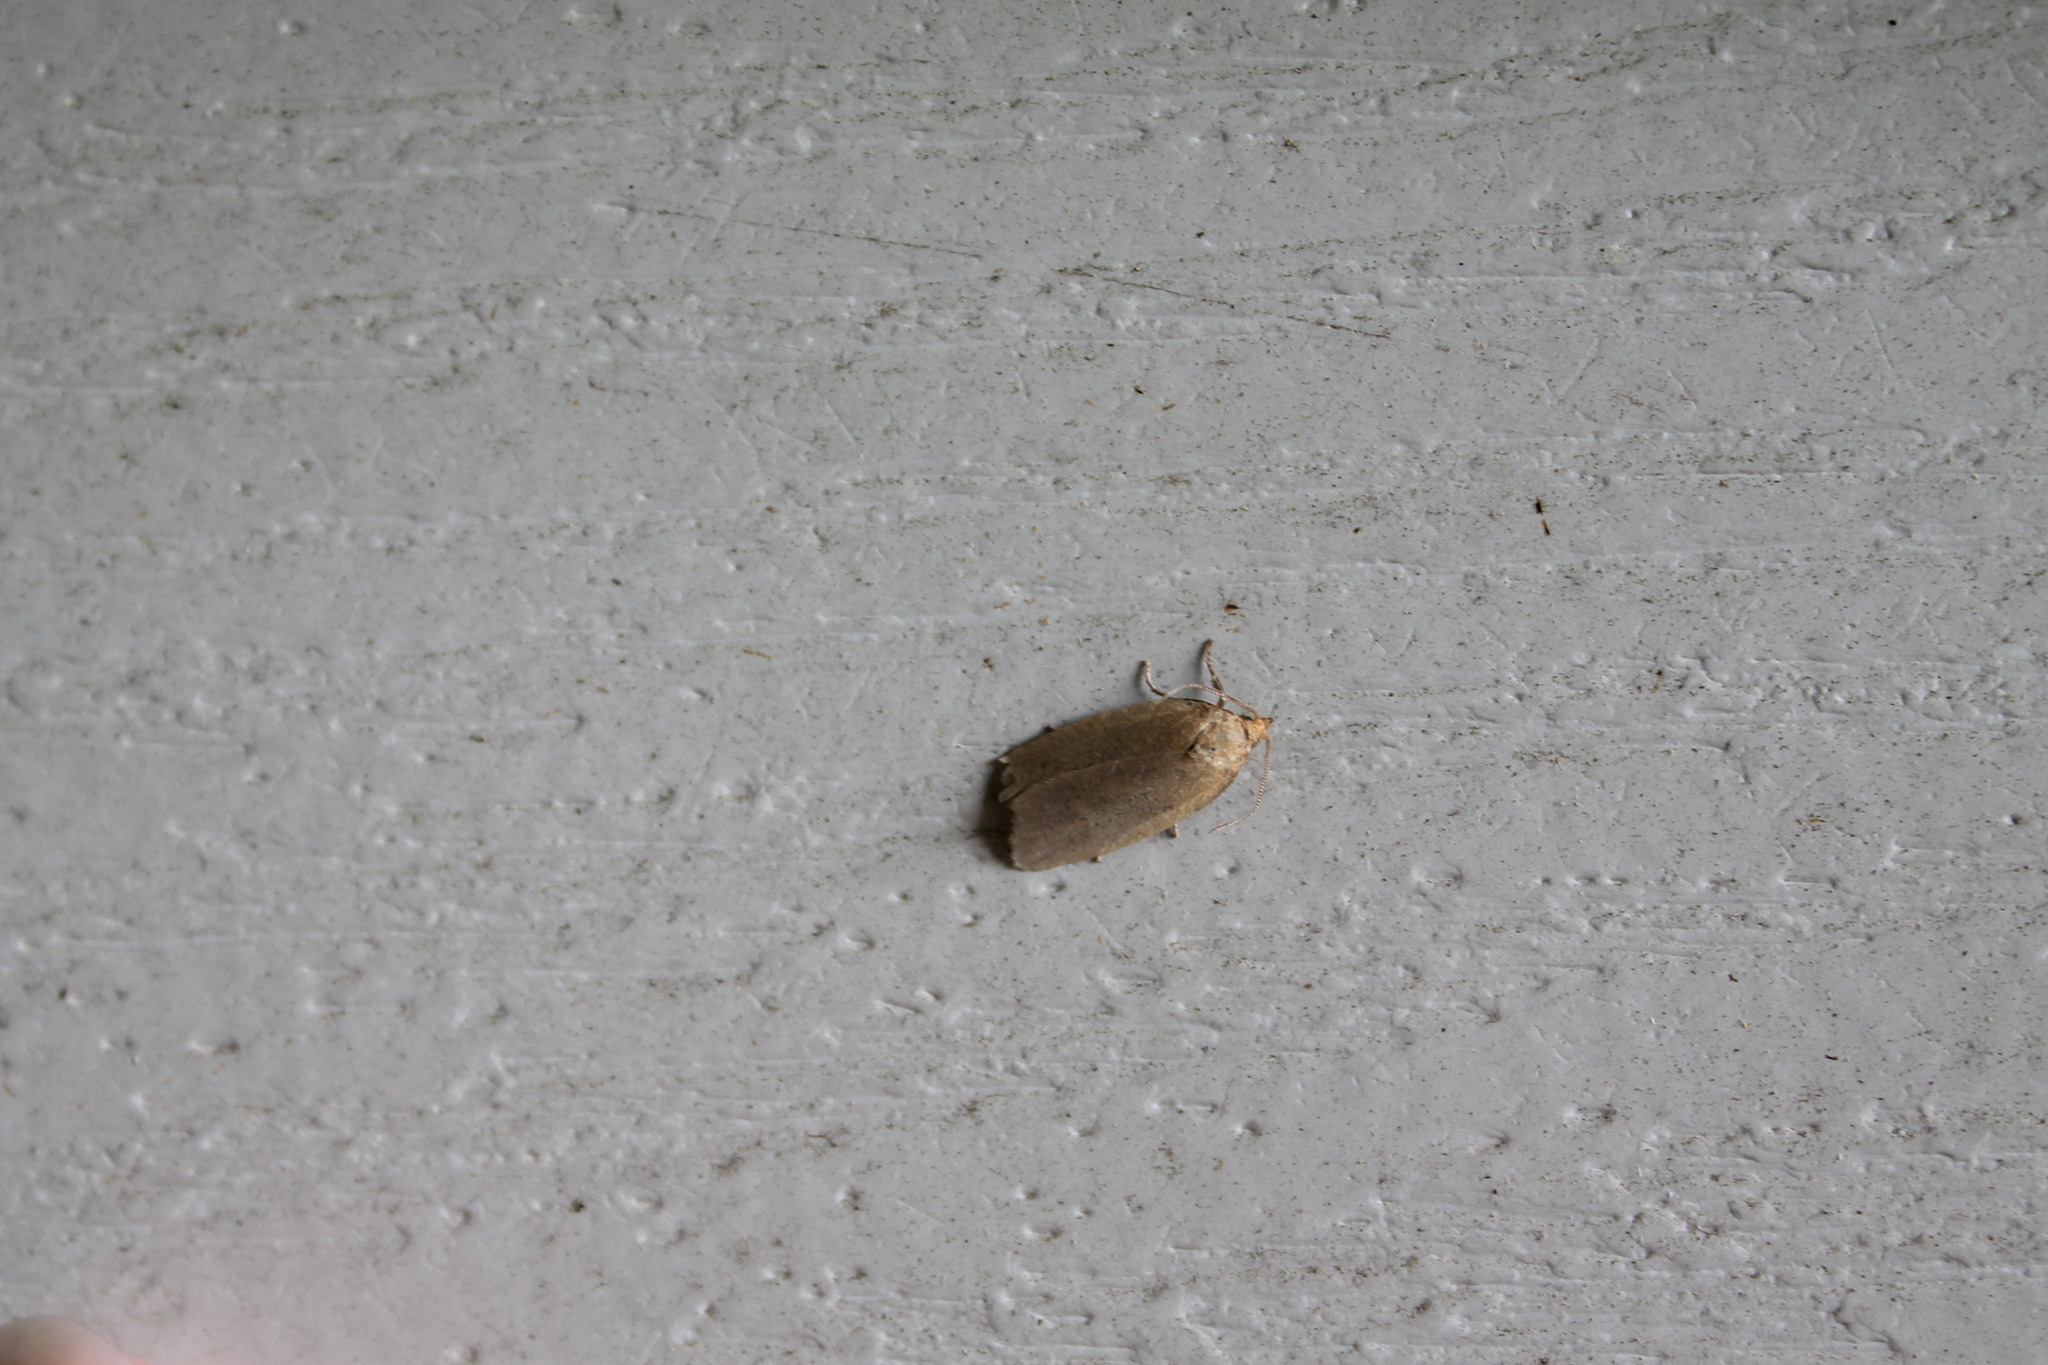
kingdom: Animalia
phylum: Arthropoda
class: Insecta
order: Lepidoptera
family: Tortricidae
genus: Clepsis
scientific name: Clepsis clemensiana
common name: Clemens' clepsis moth
